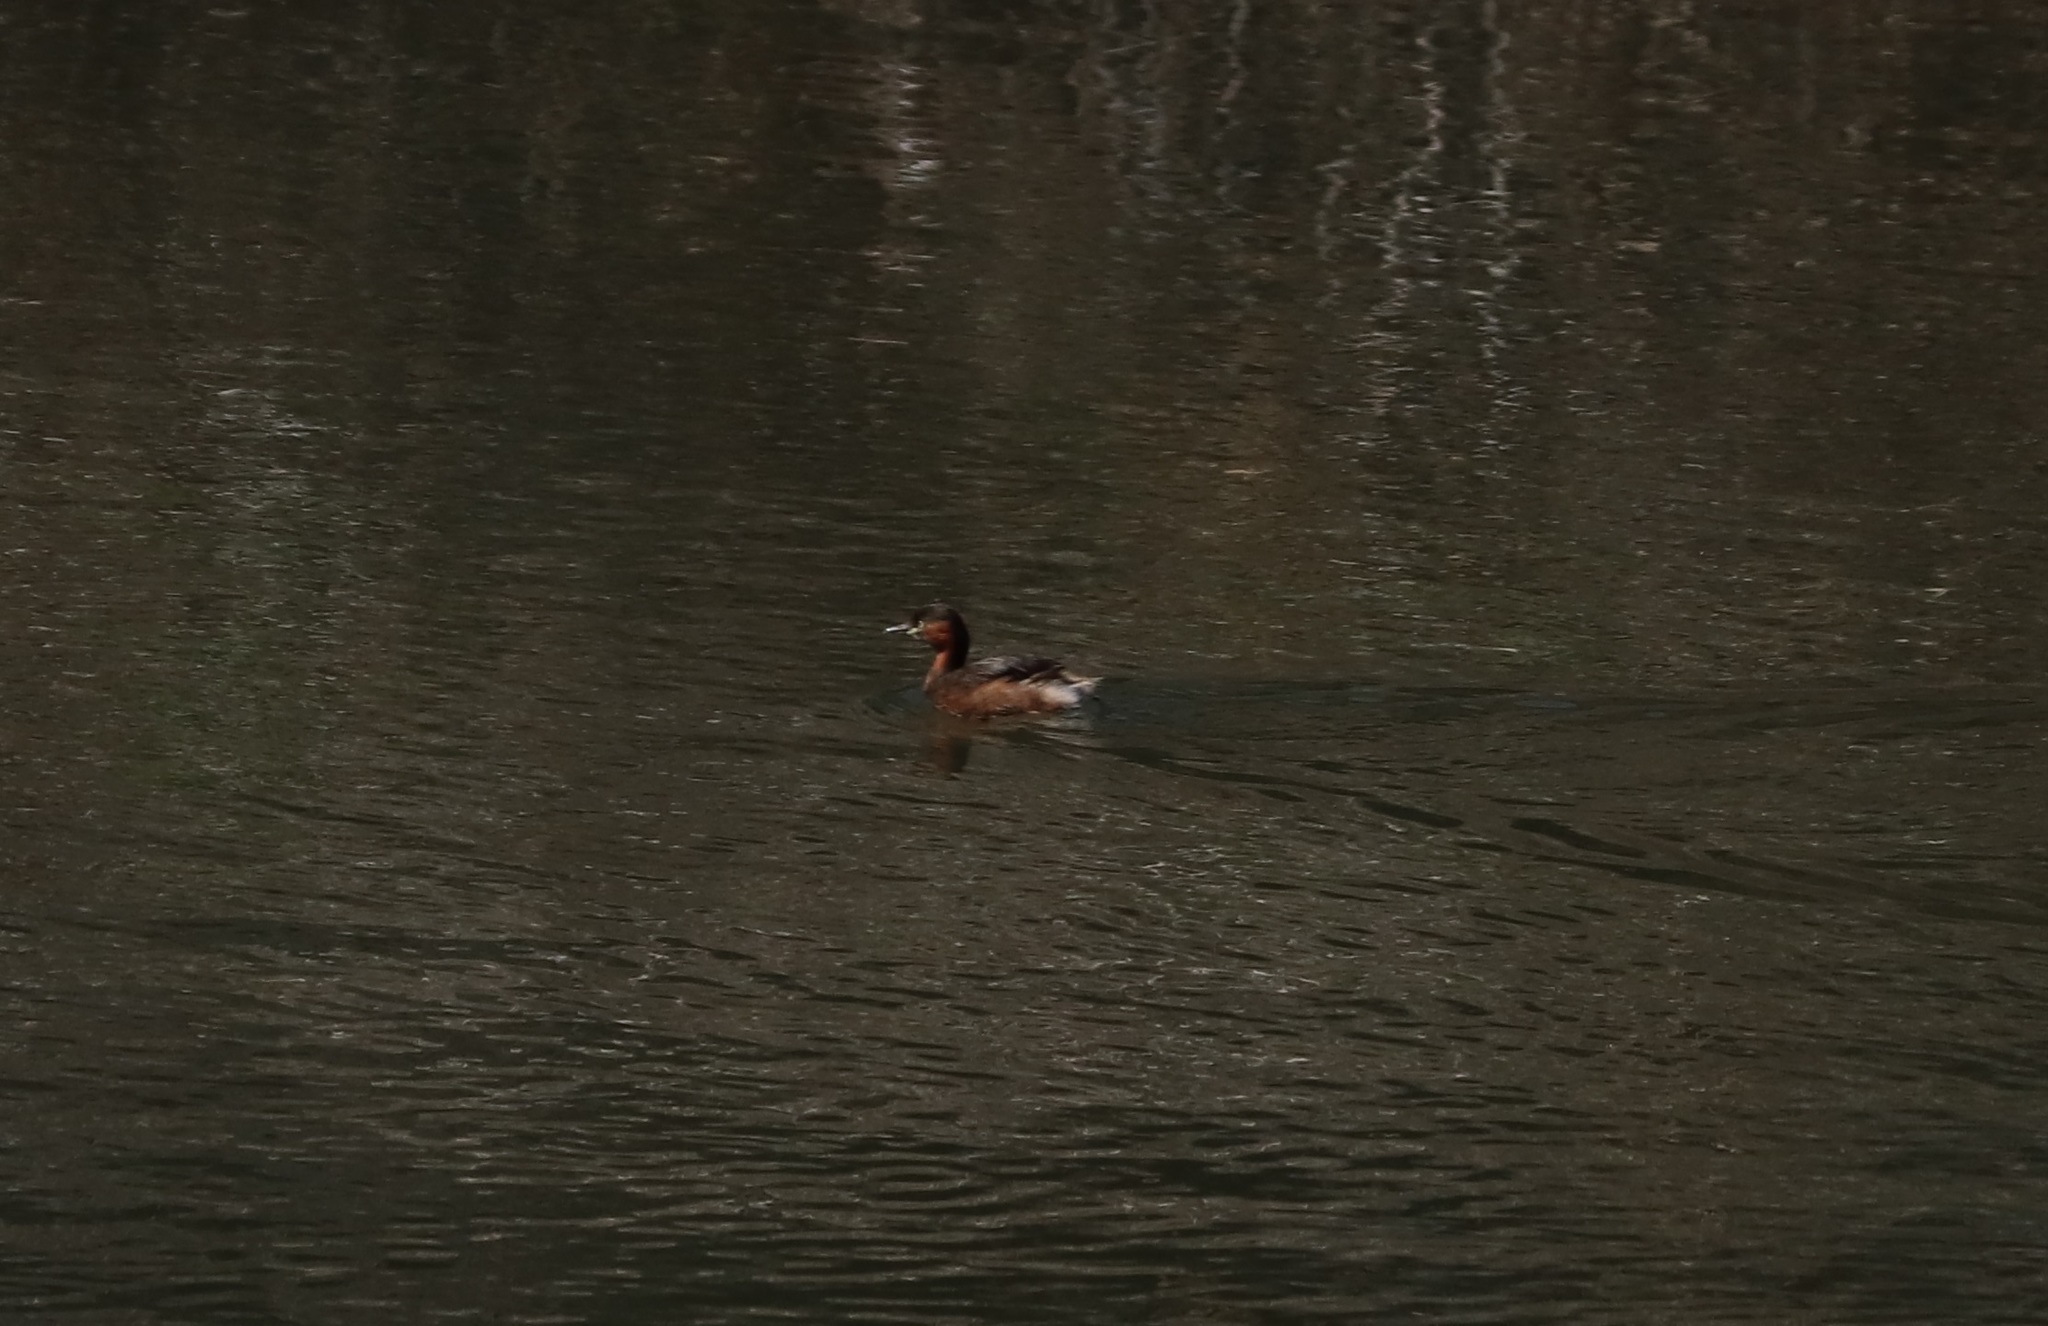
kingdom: Animalia
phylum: Chordata
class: Aves
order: Podicipediformes
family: Podicipedidae
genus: Tachybaptus
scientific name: Tachybaptus ruficollis
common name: Little grebe
